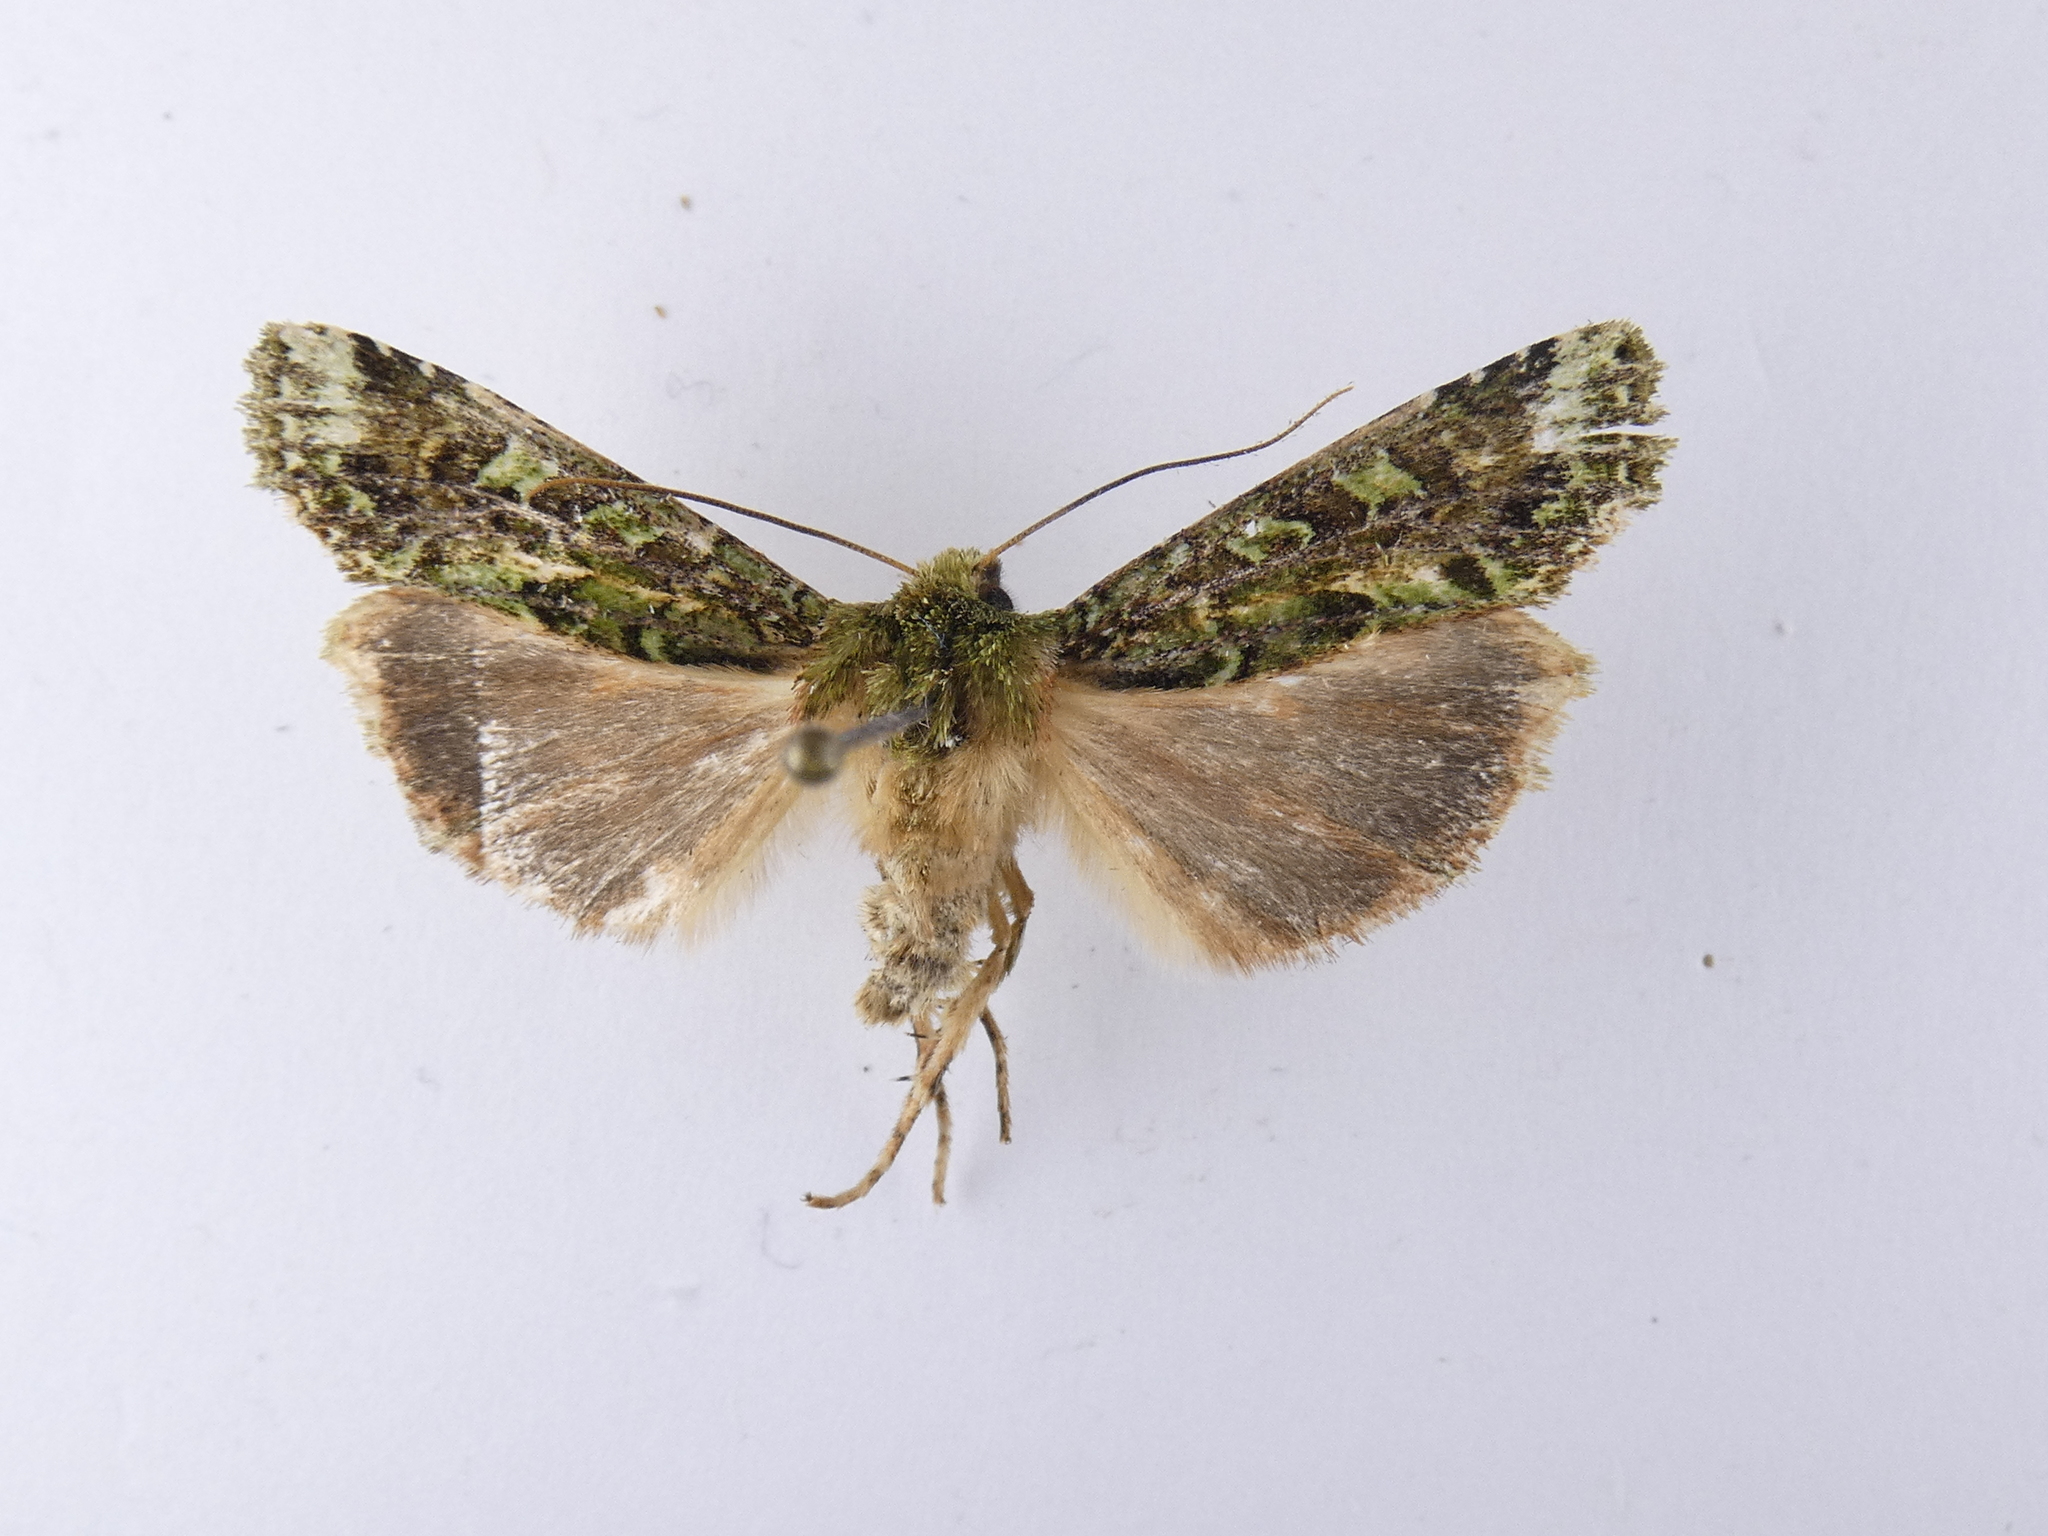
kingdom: Animalia
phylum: Arthropoda
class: Insecta
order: Lepidoptera
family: Noctuidae
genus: Feredayia
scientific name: Feredayia grammosa
